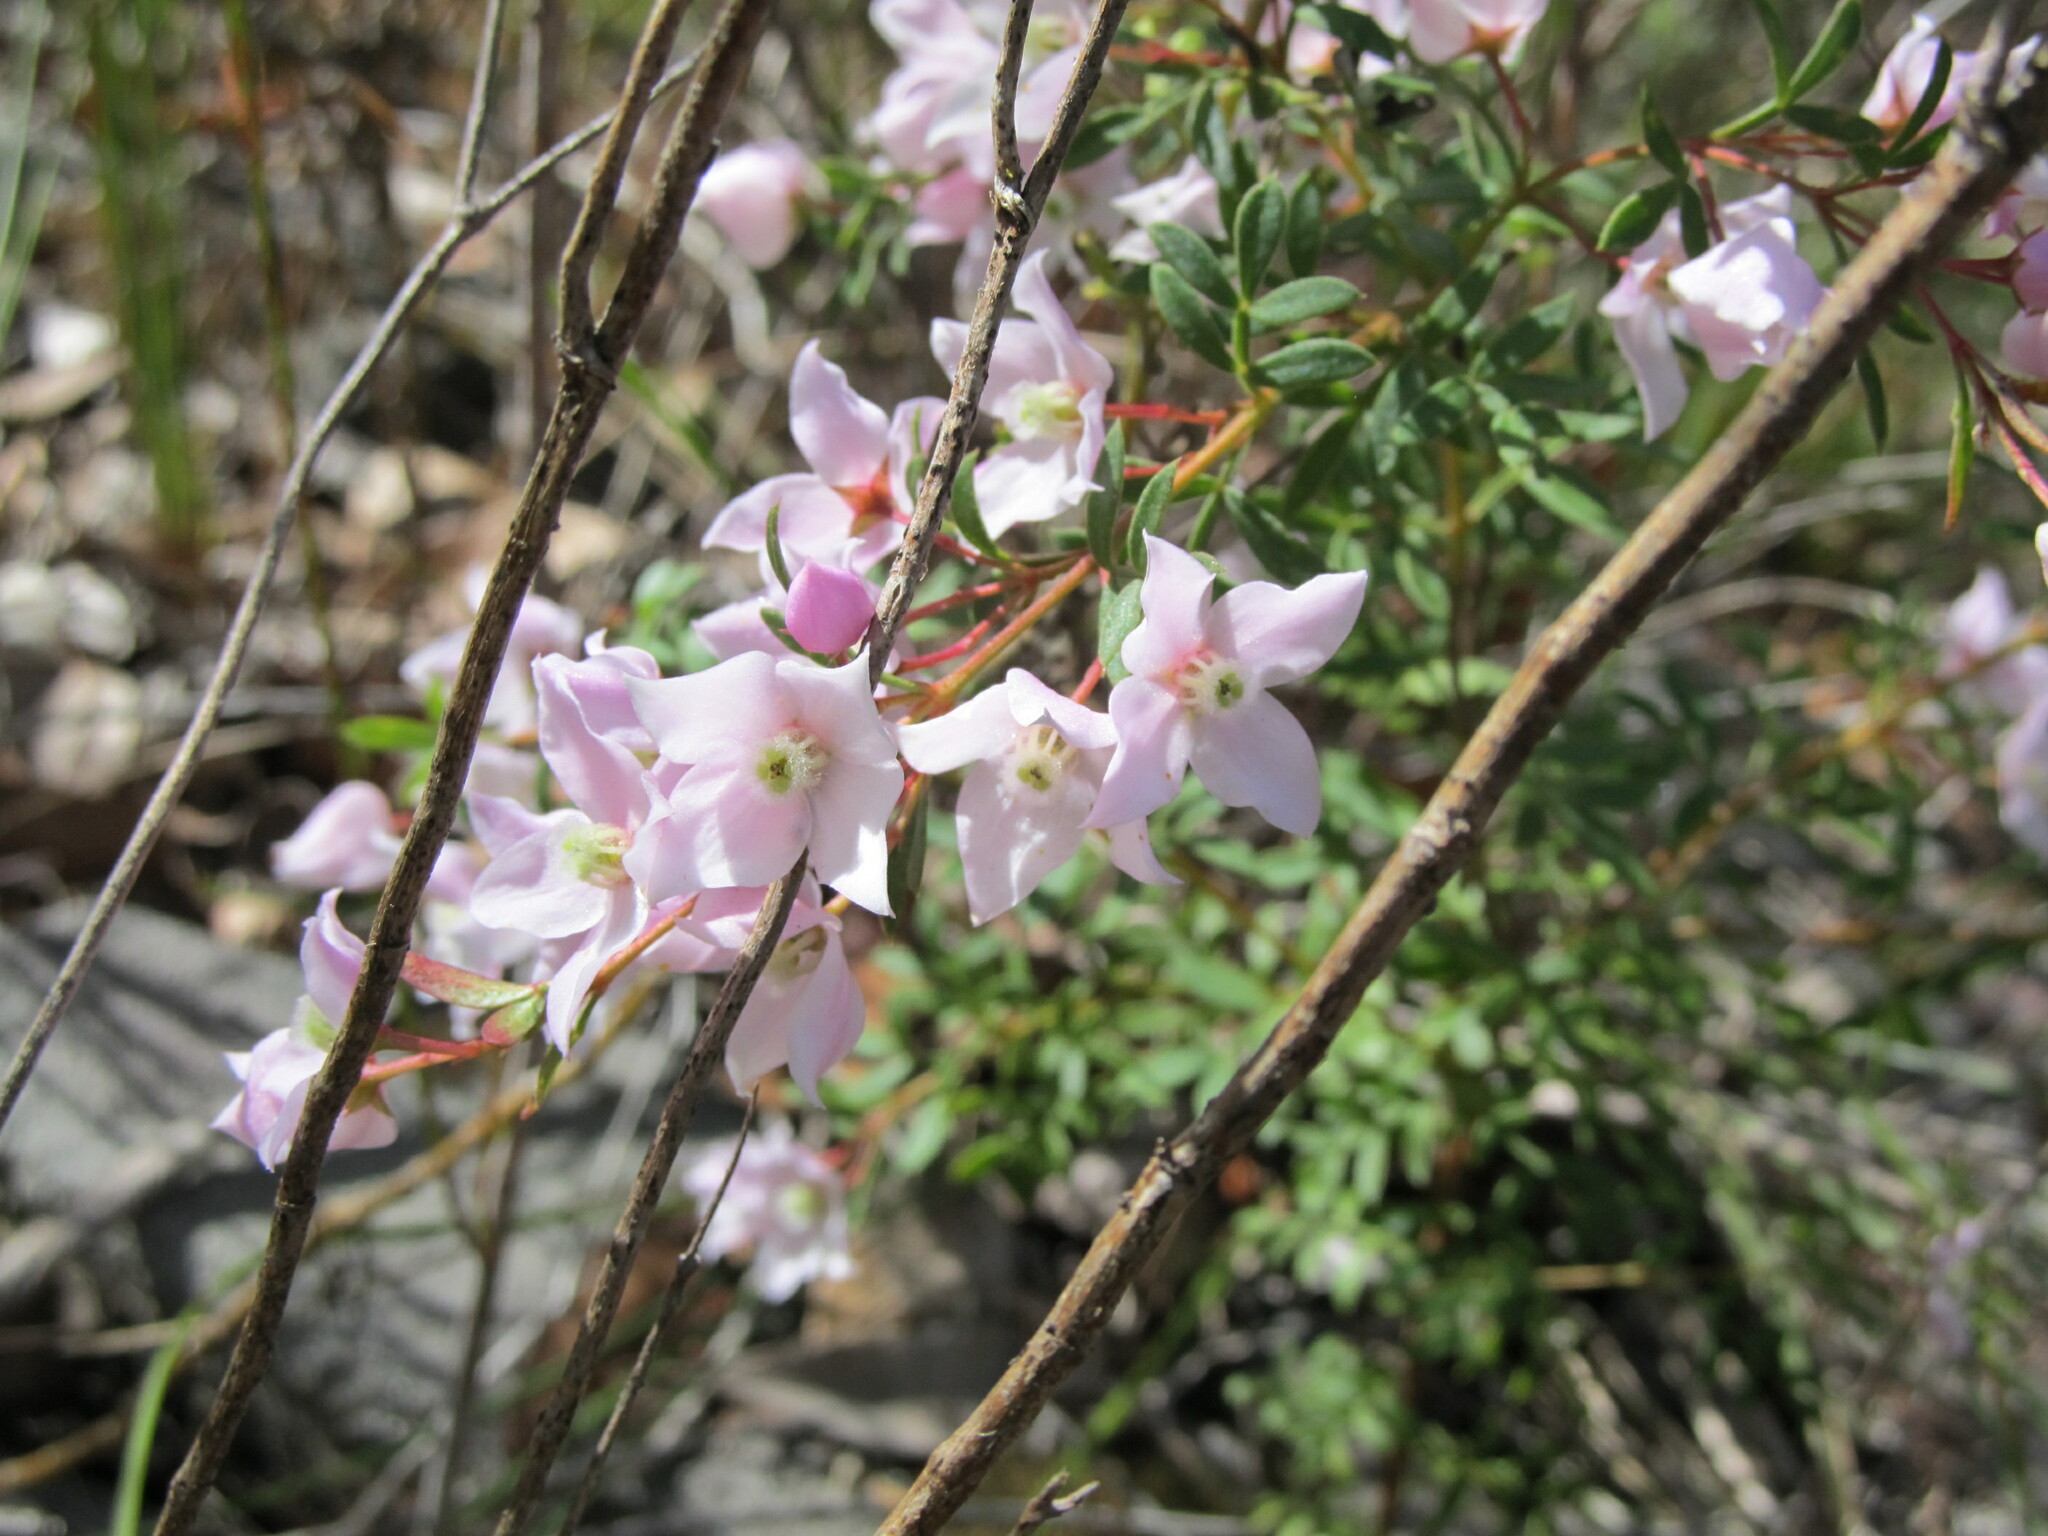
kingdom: Plantae
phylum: Tracheophyta
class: Magnoliopsida
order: Sapindales
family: Rutaceae
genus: Boronia
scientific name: Boronia floribunda
